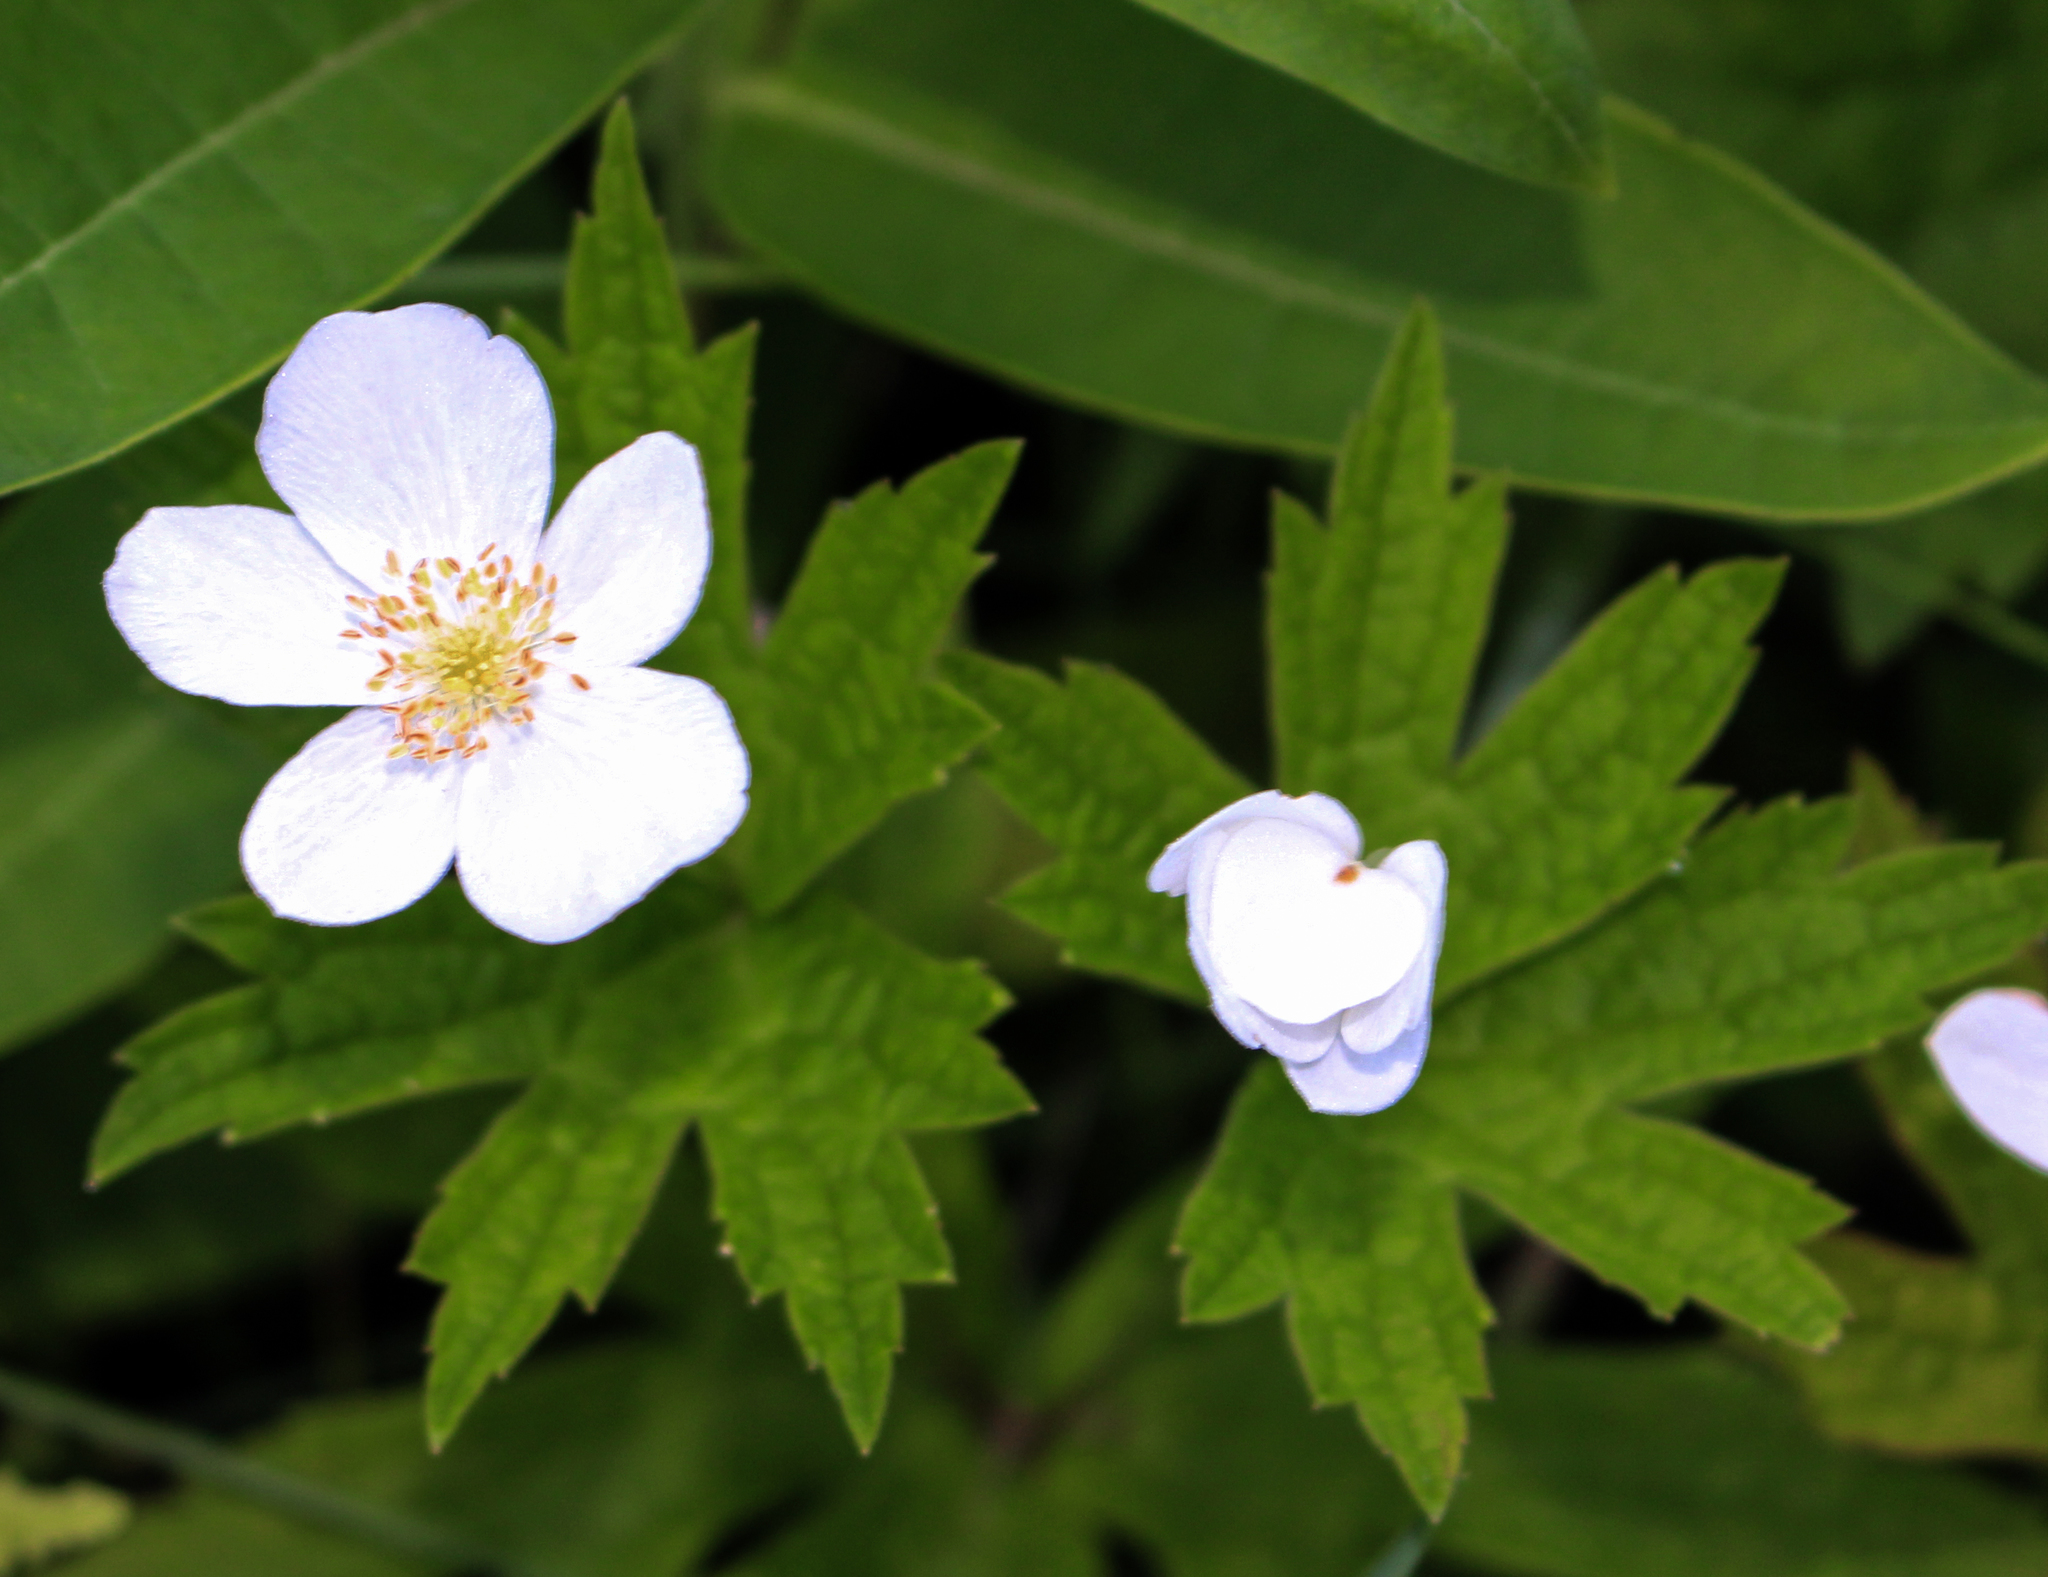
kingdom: Plantae
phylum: Tracheophyta
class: Magnoliopsida
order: Ranunculales
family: Ranunculaceae
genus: Anemonastrum
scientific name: Anemonastrum canadense
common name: Canada anemone
